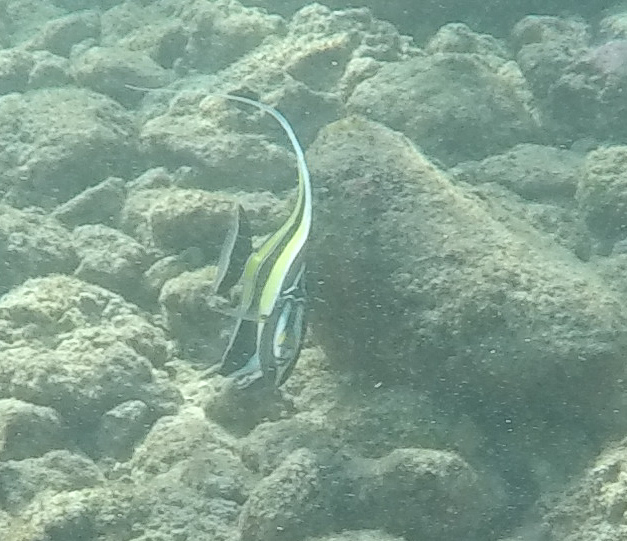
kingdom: Animalia
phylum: Chordata
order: Perciformes
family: Zanclidae
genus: Zanclus
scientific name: Zanclus cornutus
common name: Moorish idol
